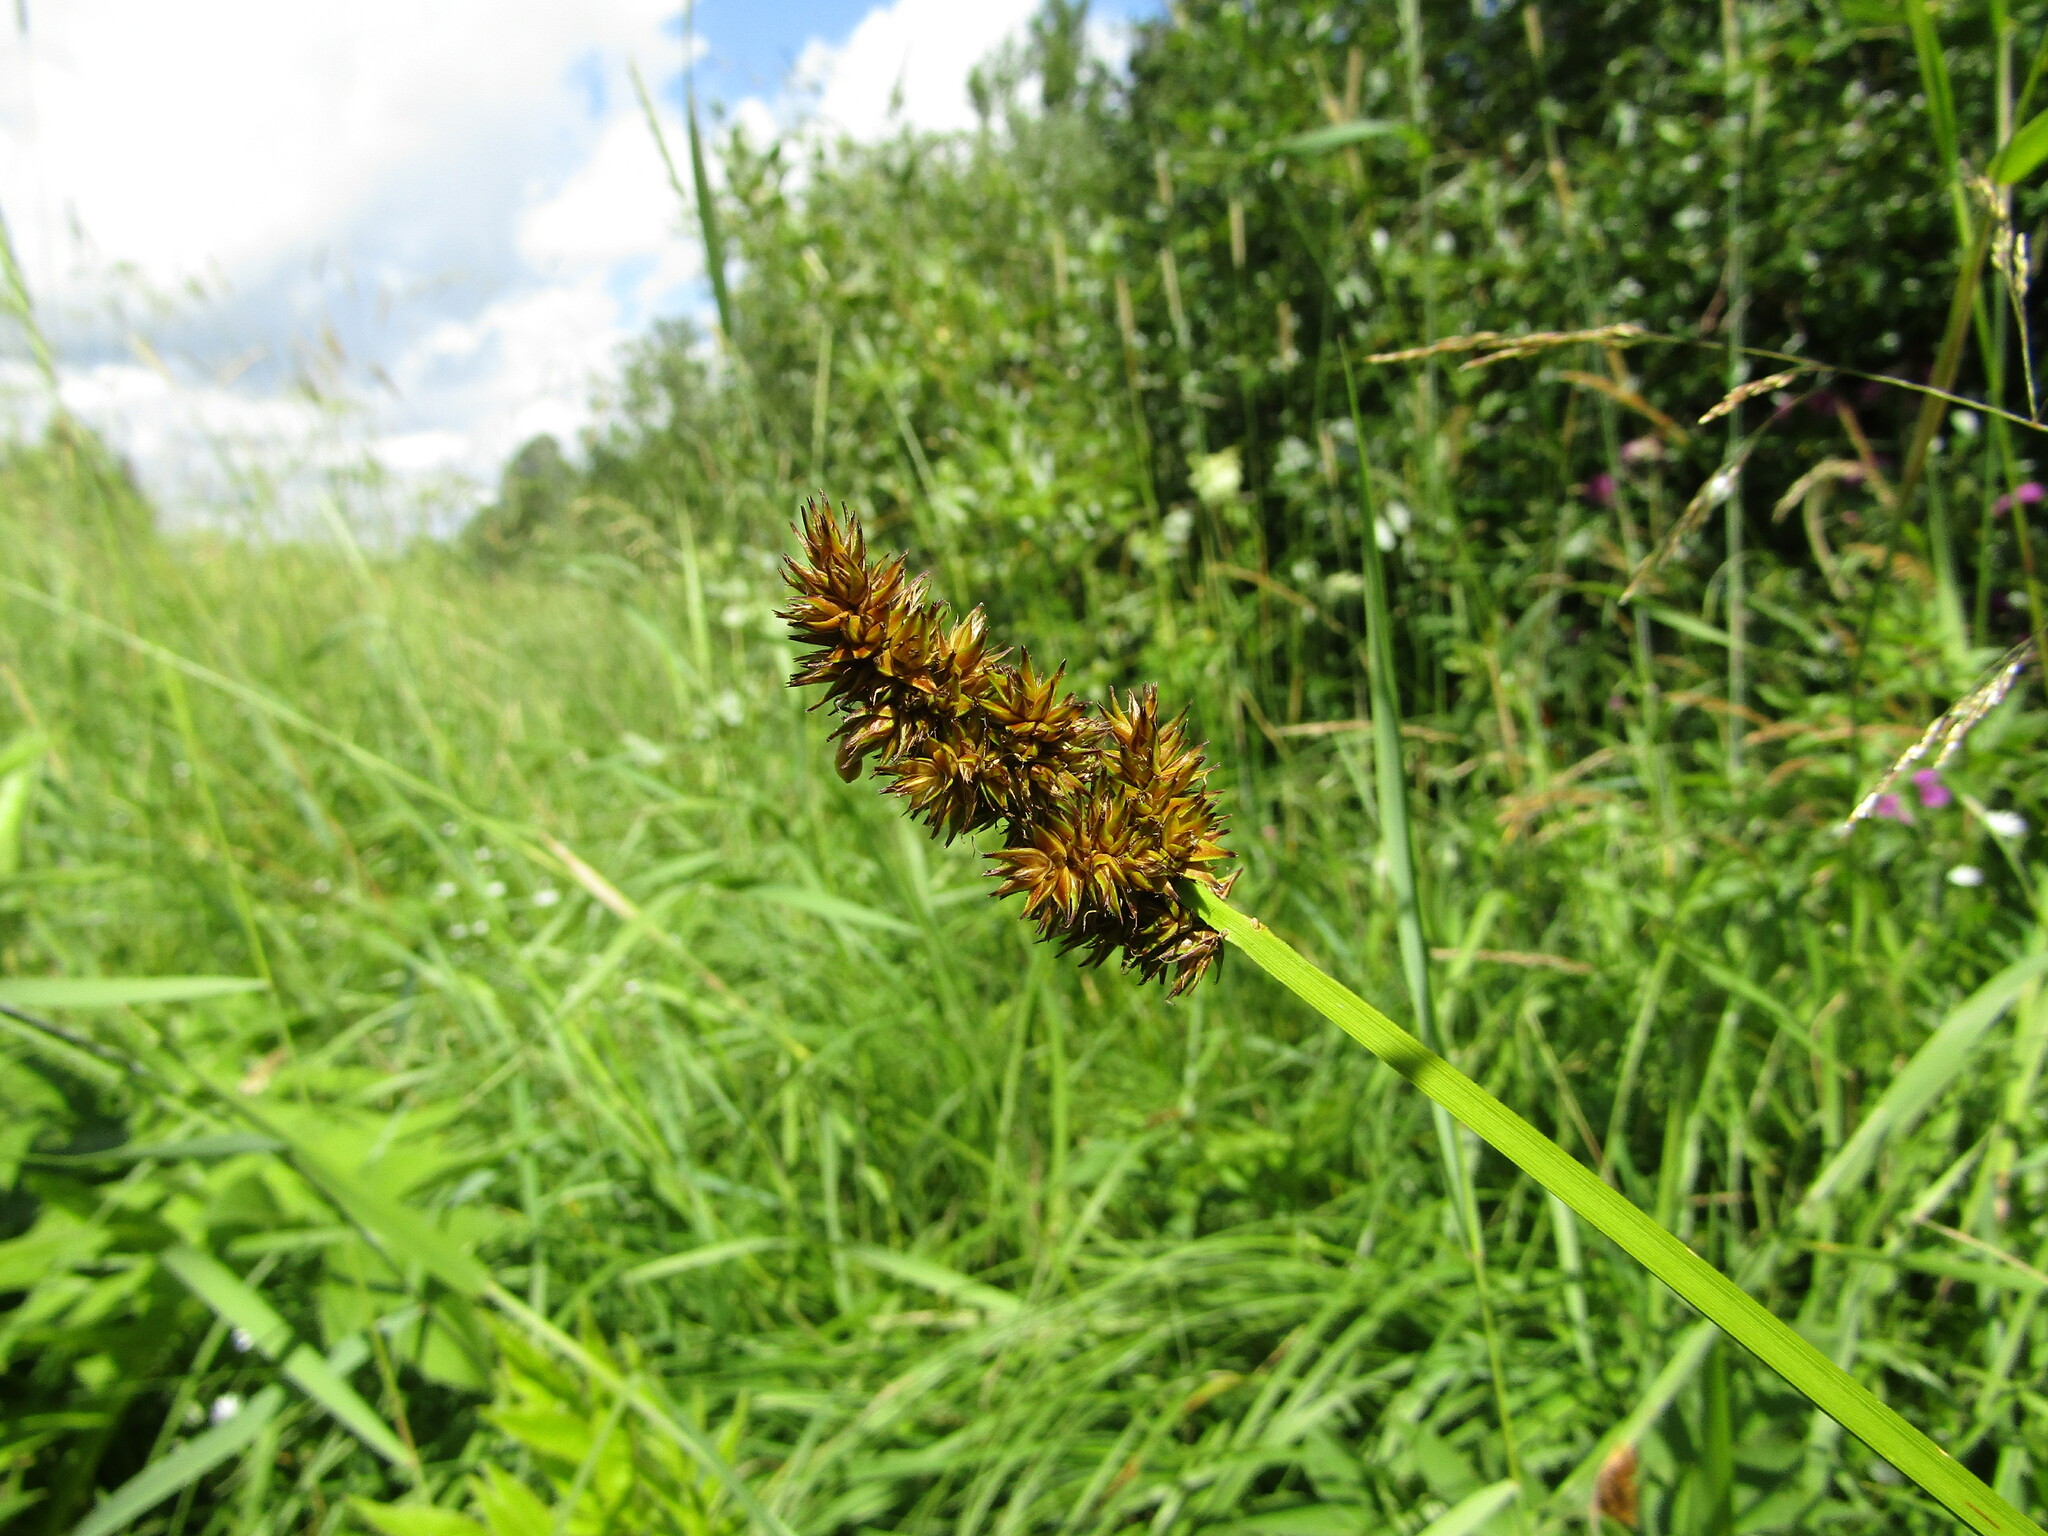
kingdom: Plantae
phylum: Tracheophyta
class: Liliopsida
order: Poales
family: Cyperaceae
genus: Carex
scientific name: Carex vulpina
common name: True fox-sedge
